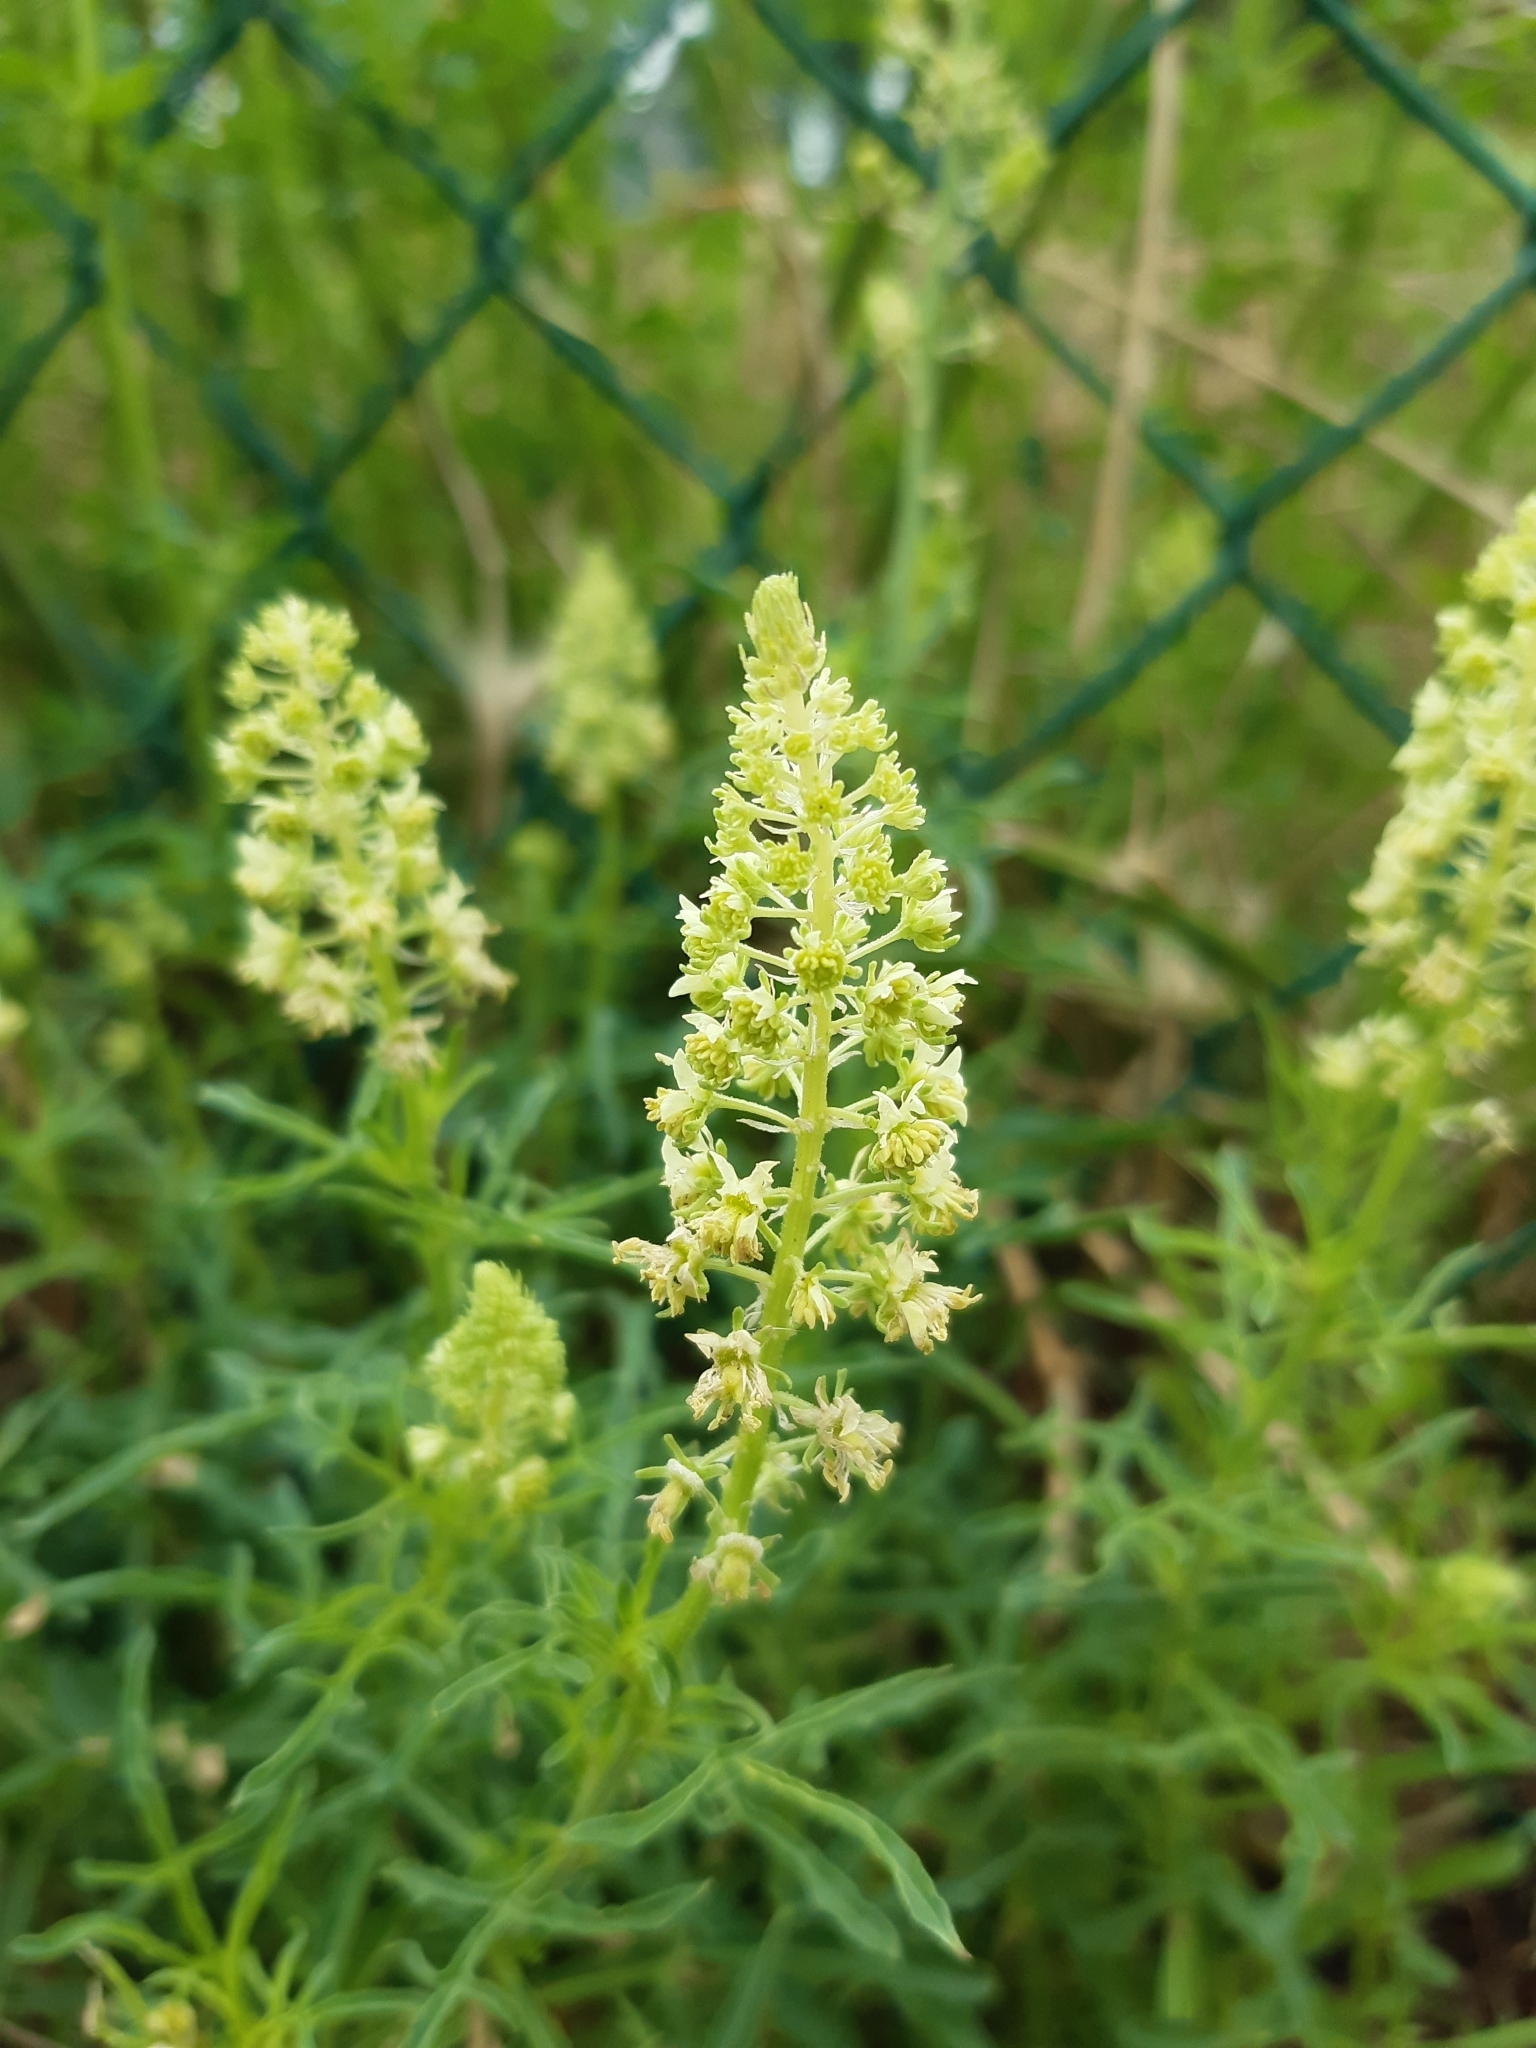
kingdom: Plantae
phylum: Tracheophyta
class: Magnoliopsida
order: Brassicales
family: Resedaceae
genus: Reseda
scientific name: Reseda lutea
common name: Wild mignonette
